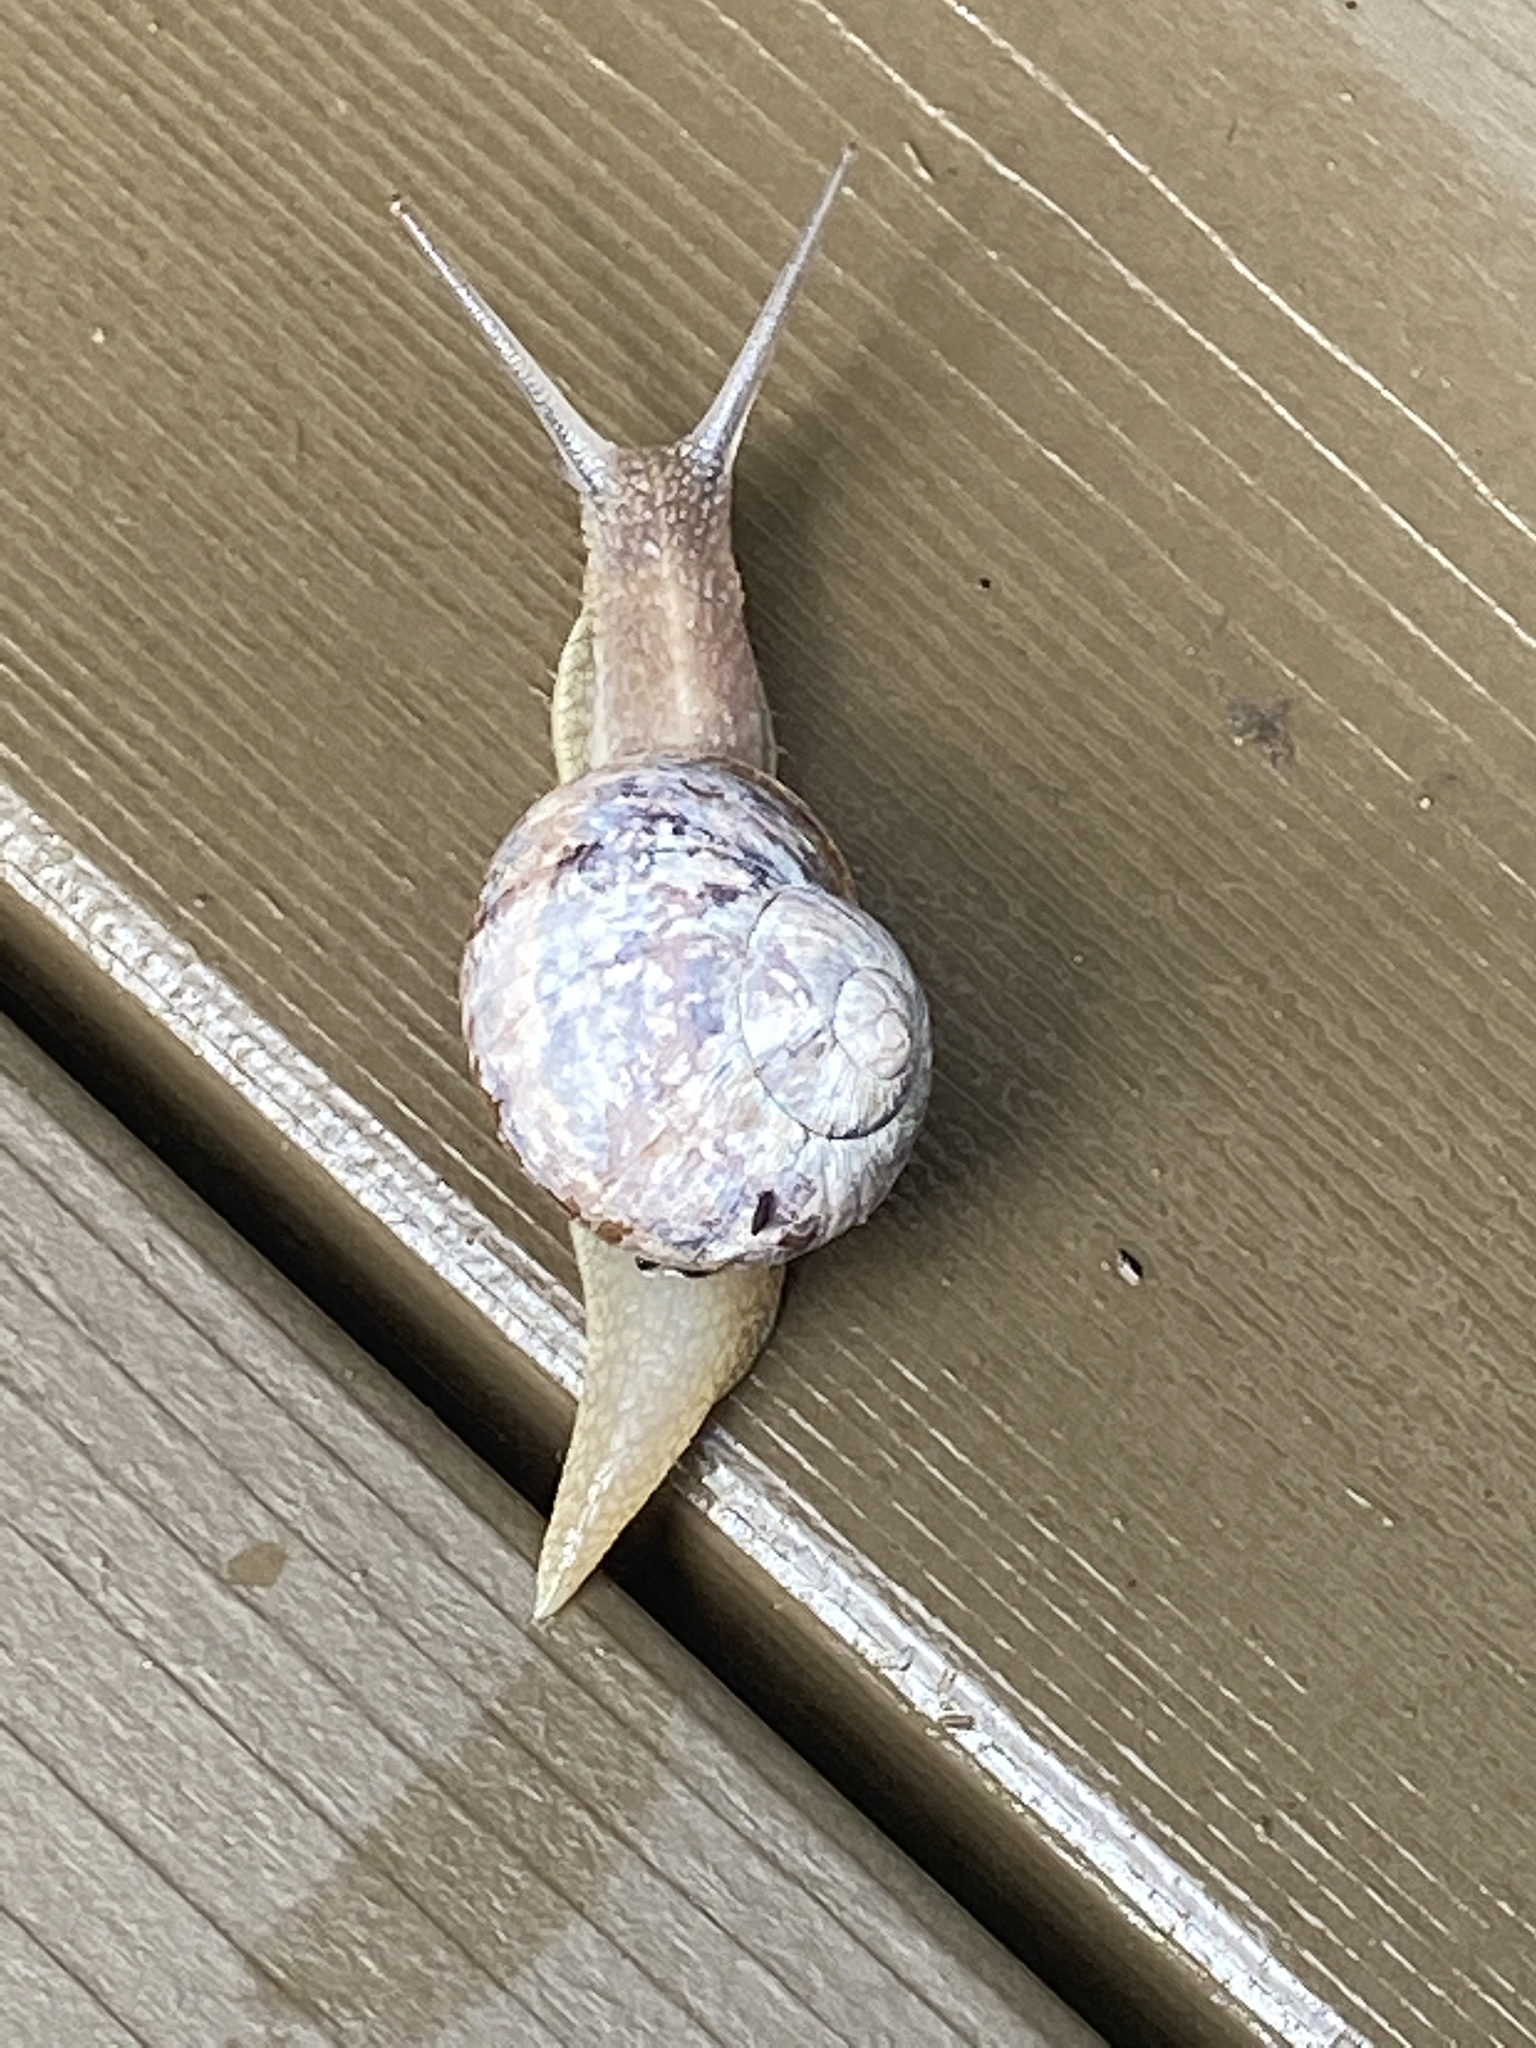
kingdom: Animalia
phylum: Mollusca
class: Gastropoda
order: Stylommatophora
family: Helicidae
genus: Cornu
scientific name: Cornu aspersum
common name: Brown garden snail
